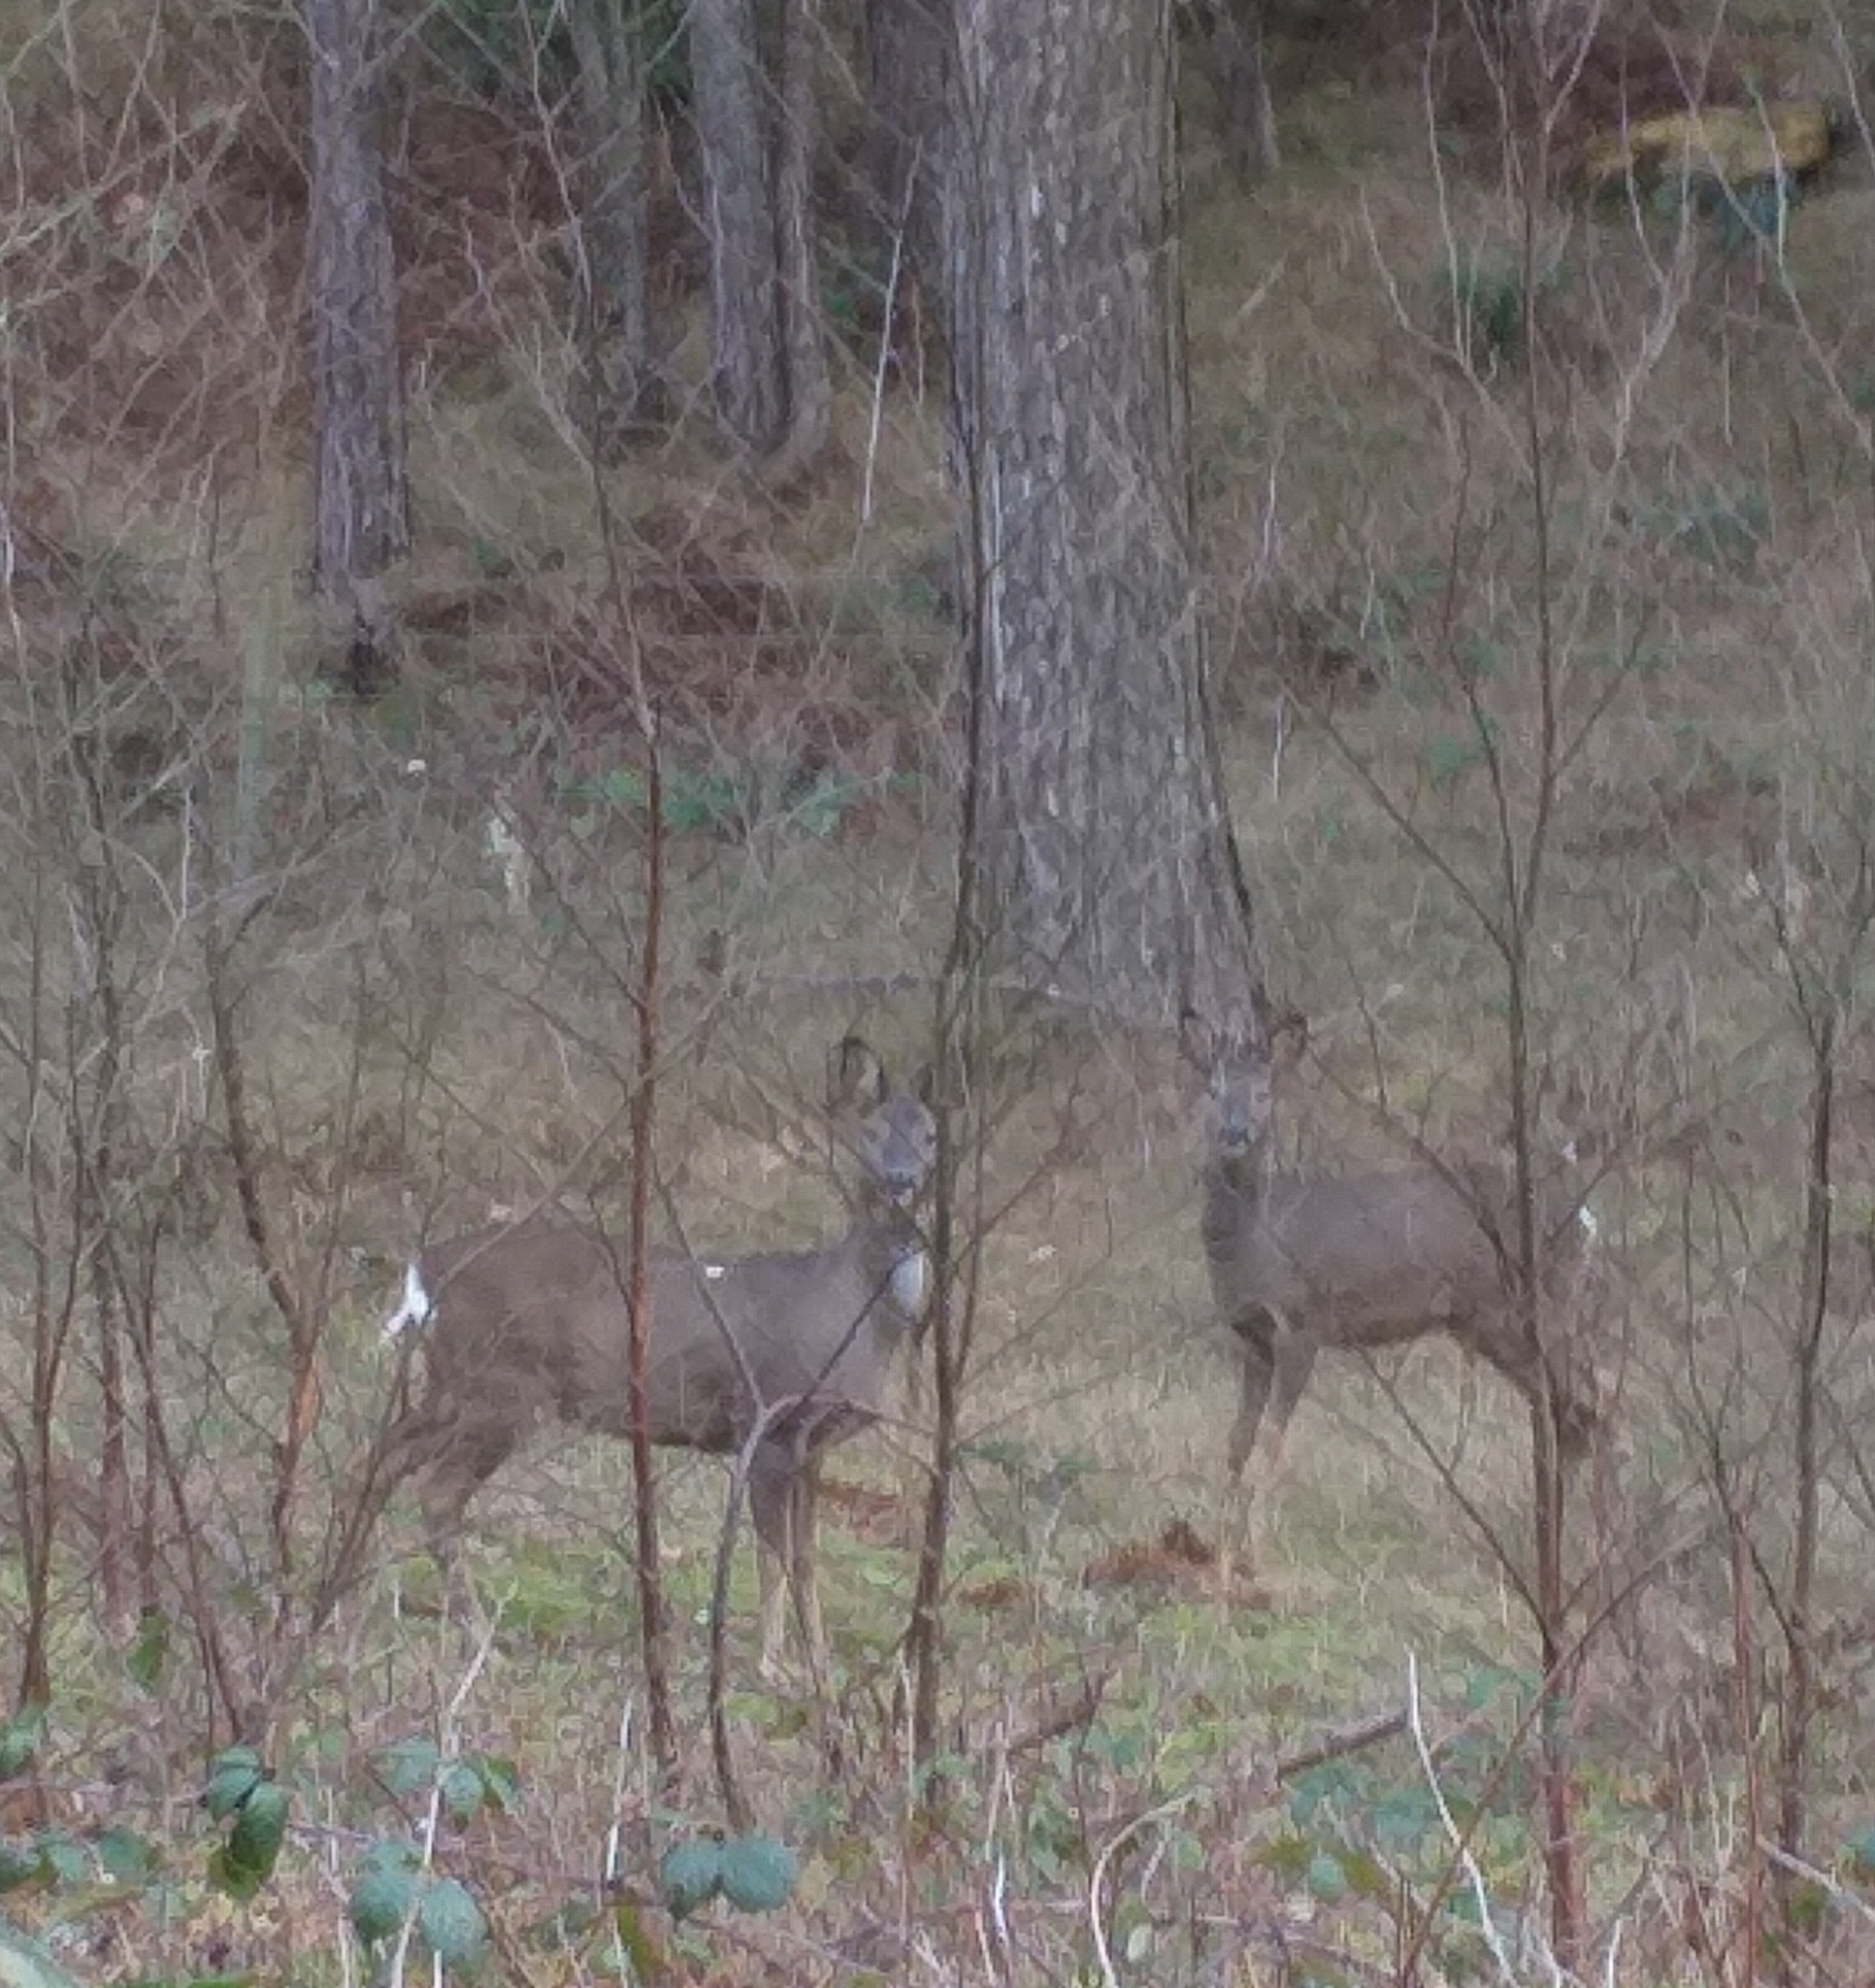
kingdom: Animalia
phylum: Chordata
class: Mammalia
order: Artiodactyla
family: Cervidae
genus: Capreolus
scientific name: Capreolus capreolus
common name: Western roe deer
